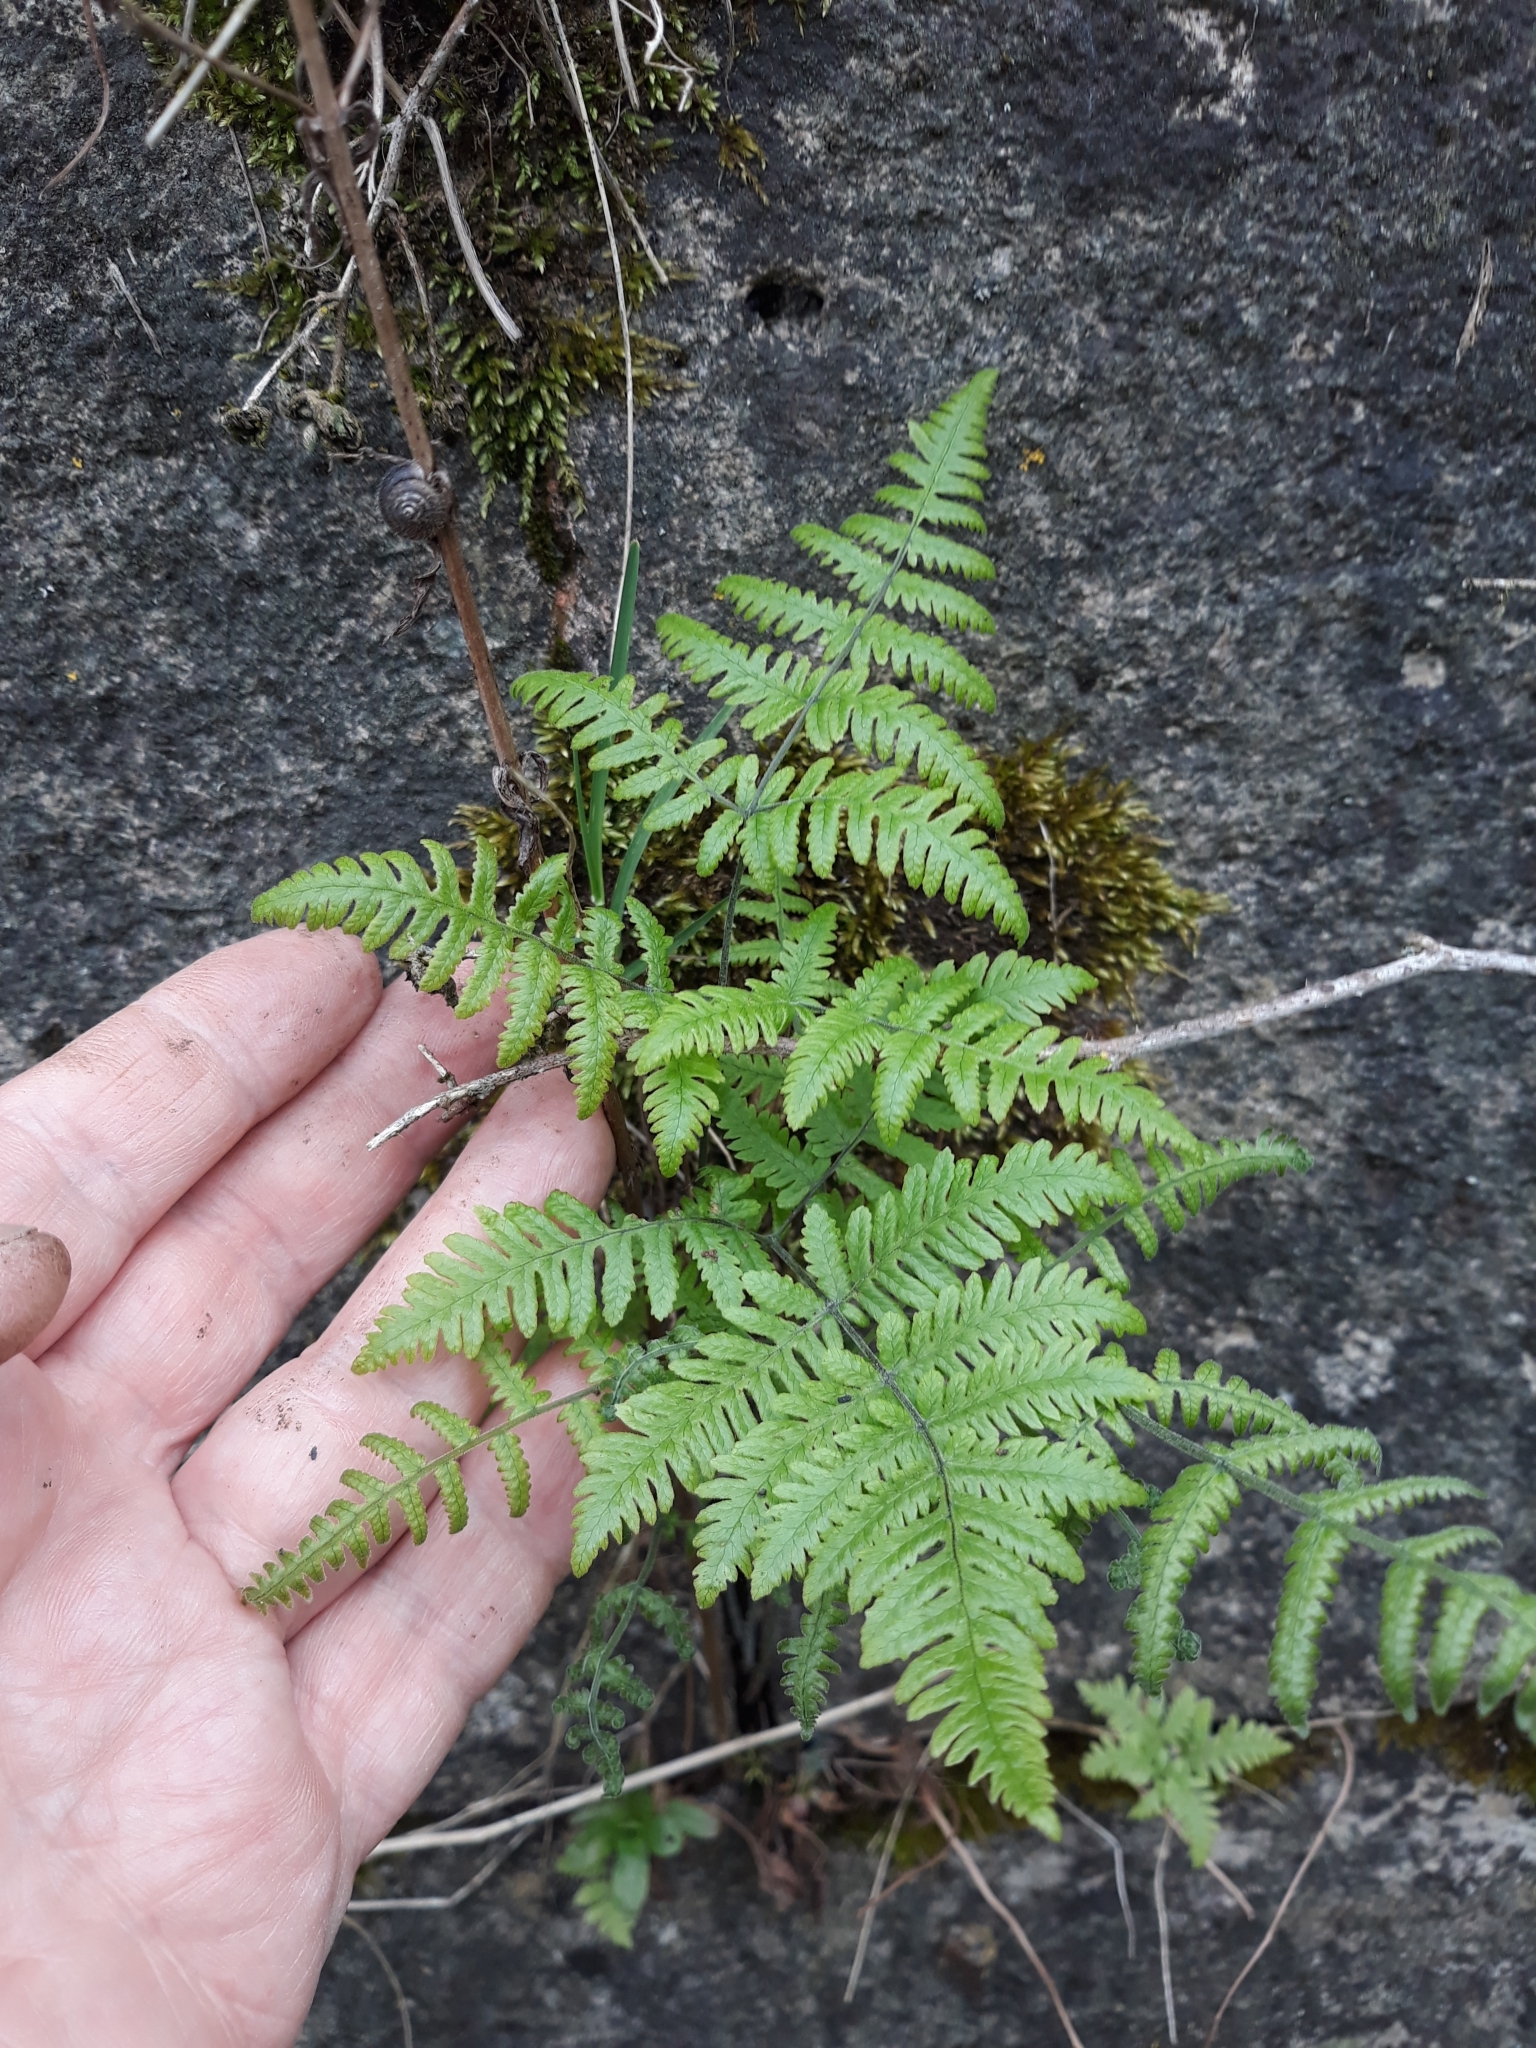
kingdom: Plantae
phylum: Tracheophyta
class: Polypodiopsida
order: Polypodiales
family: Cystopteridaceae
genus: Gymnocarpium
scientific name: Gymnocarpium robertianum
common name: Limestone fern
